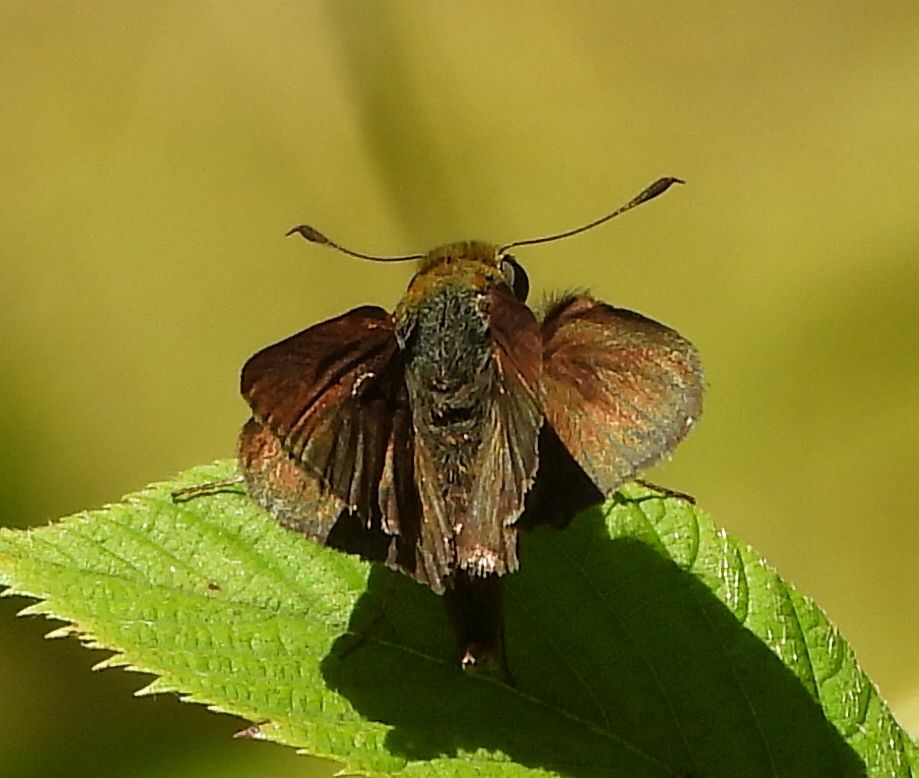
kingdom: Animalia
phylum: Arthropoda
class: Insecta
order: Lepidoptera
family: Hesperiidae
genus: Euphyes
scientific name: Euphyes vestris
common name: Dun skipper
